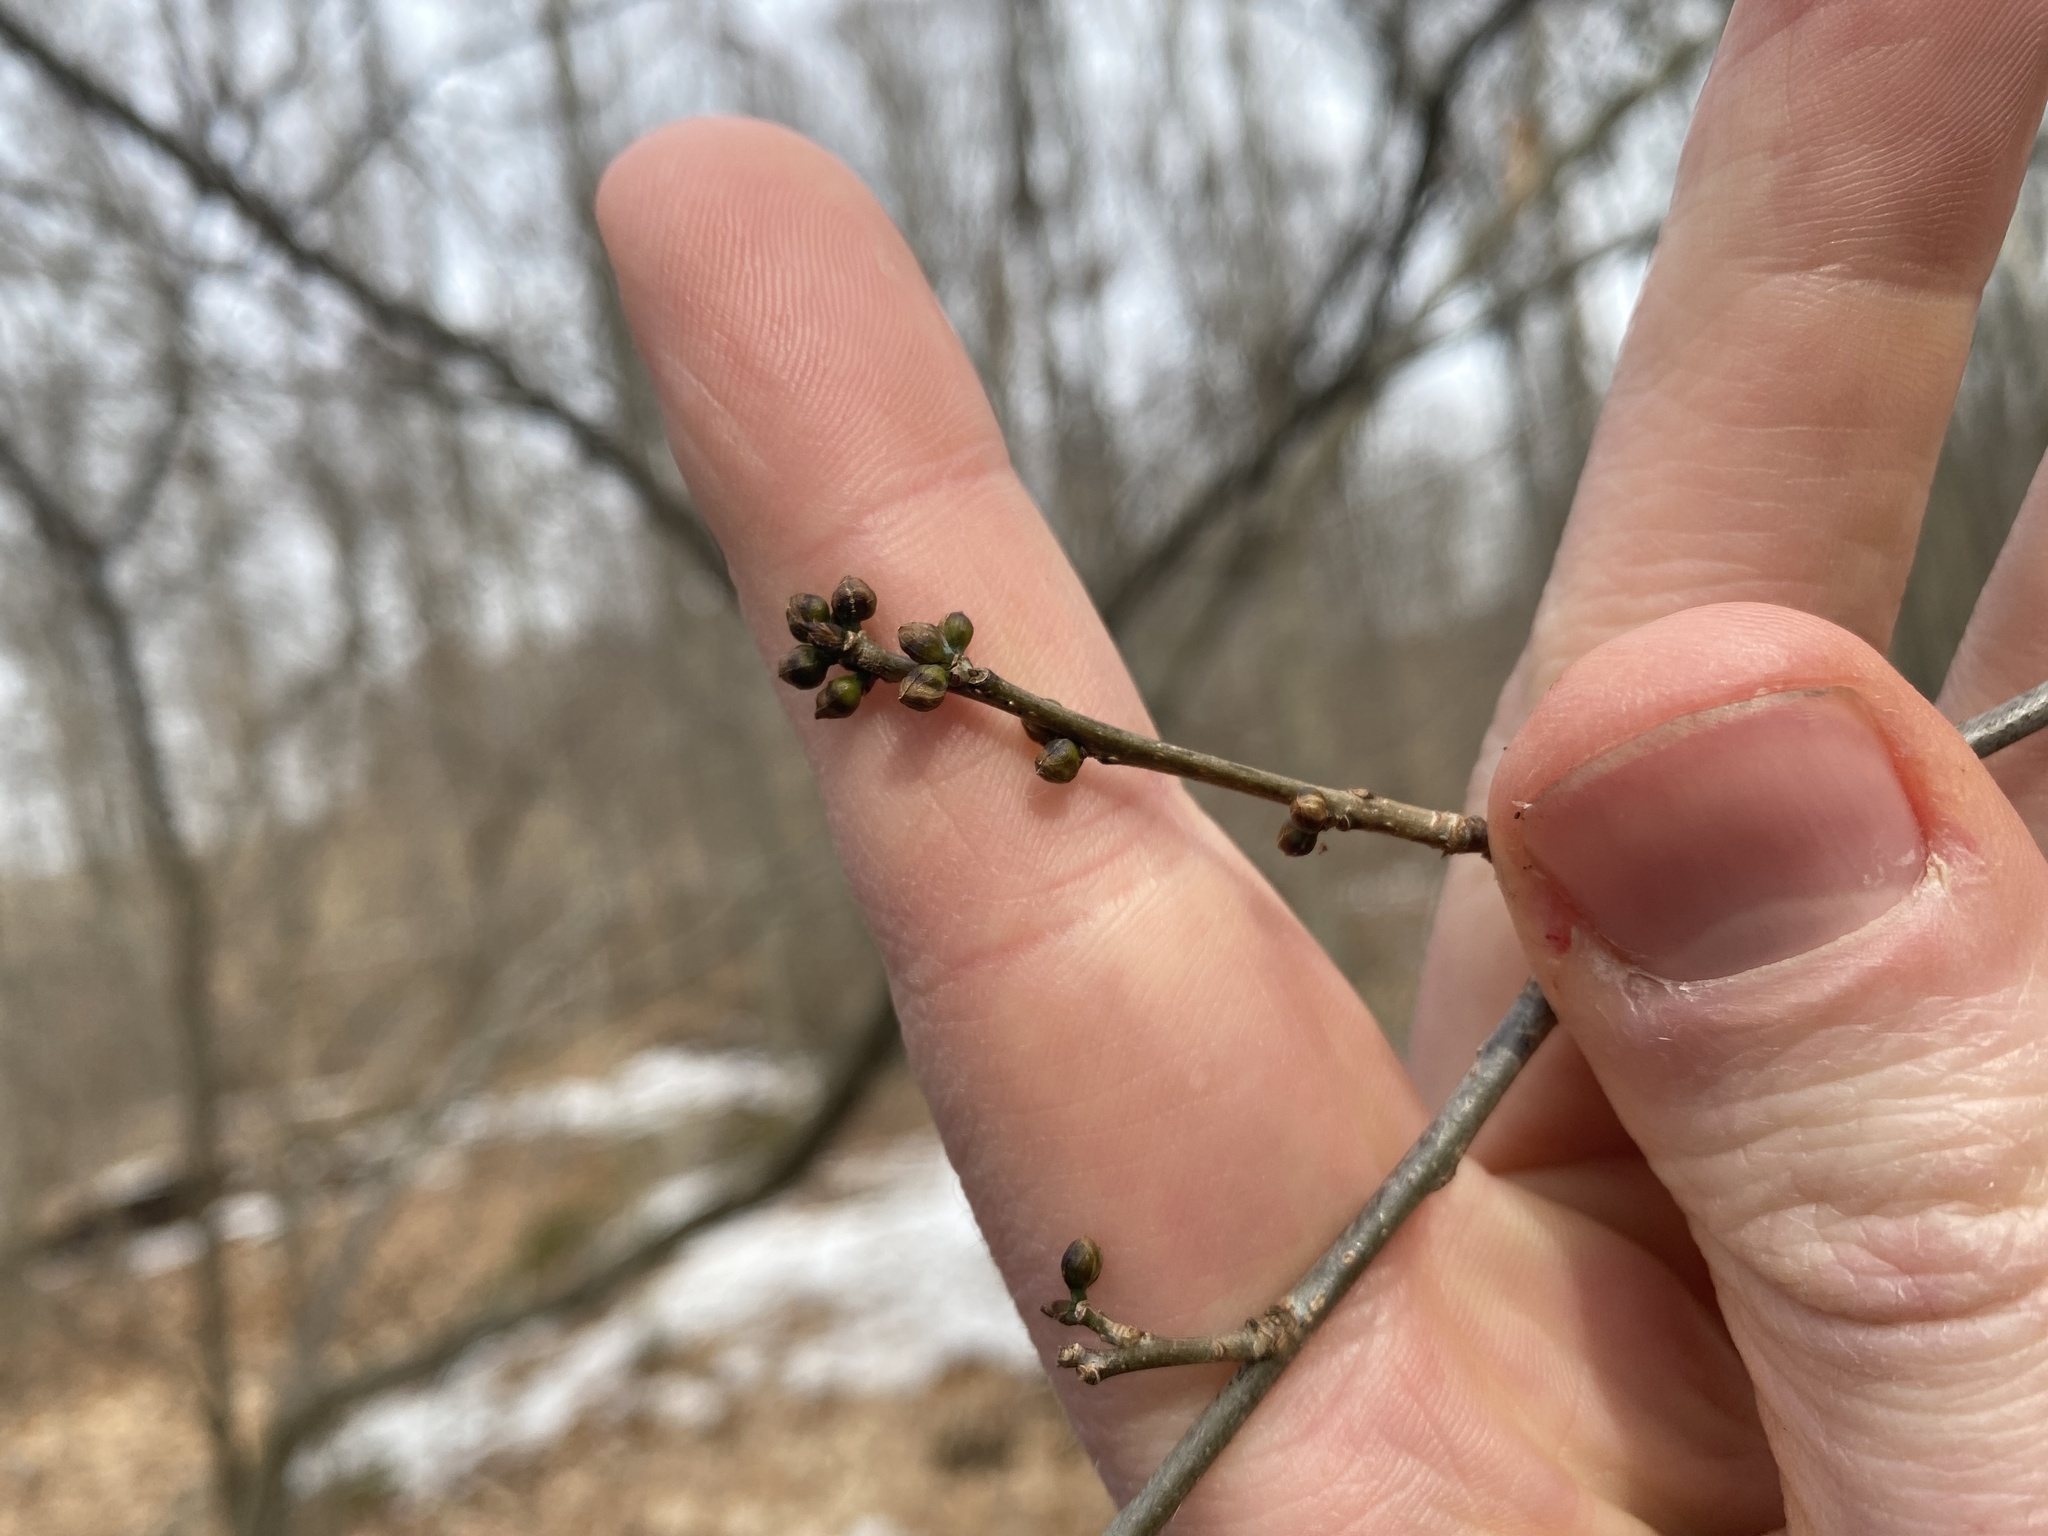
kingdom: Plantae
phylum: Tracheophyta
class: Magnoliopsida
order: Laurales
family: Lauraceae
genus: Lindera
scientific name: Lindera benzoin
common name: Spicebush
